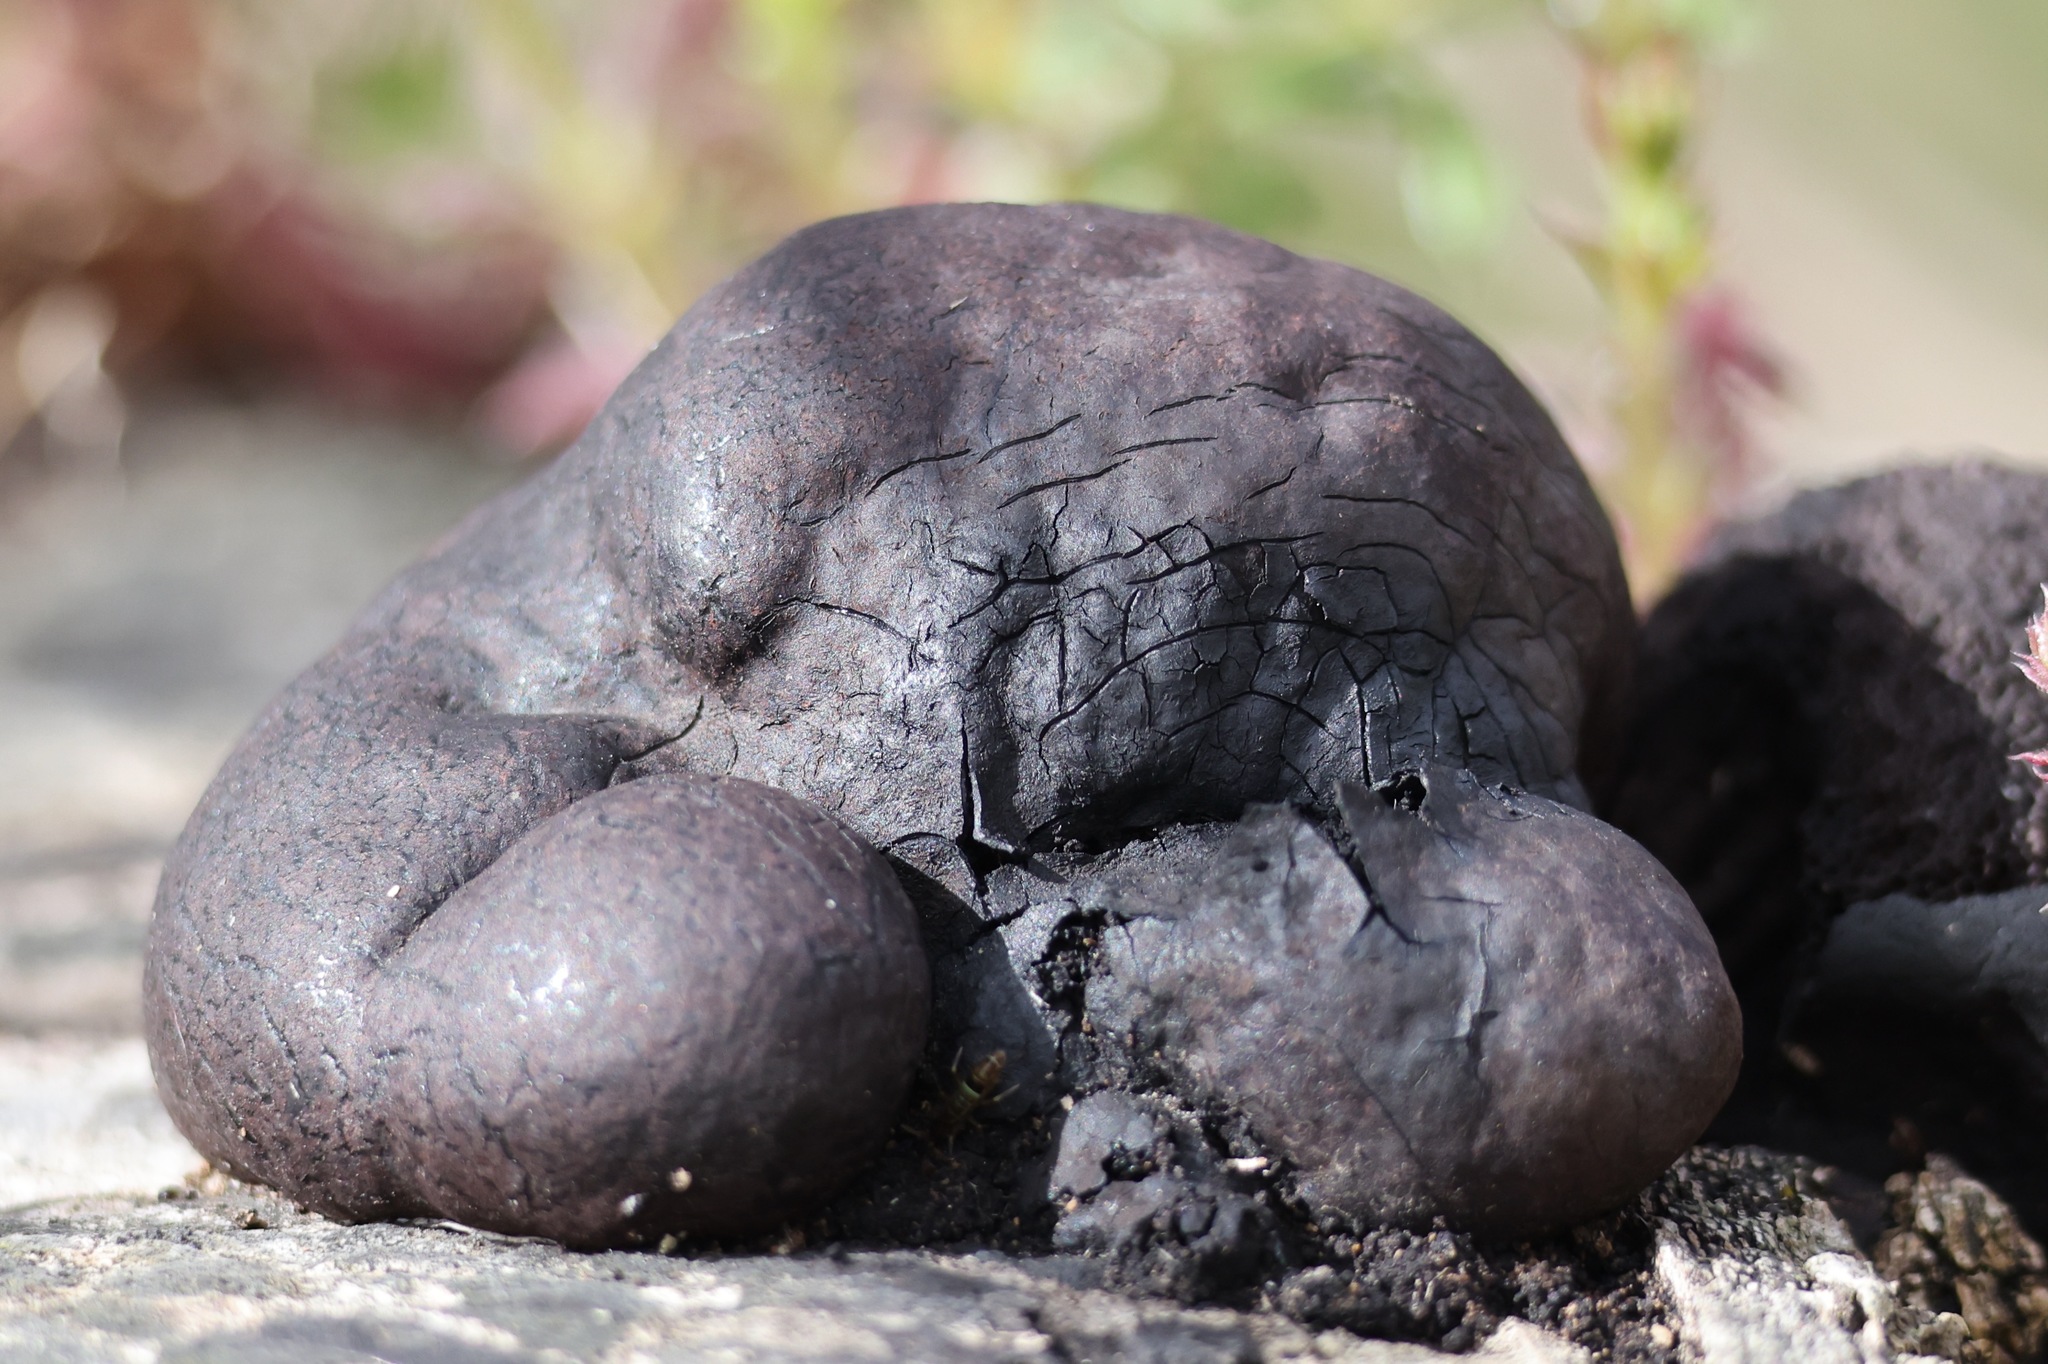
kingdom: Fungi
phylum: Ascomycota
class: Sordariomycetes
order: Xylariales
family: Hypoxylaceae
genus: Daldinia
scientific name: Daldinia concentrica
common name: Cramp balls
